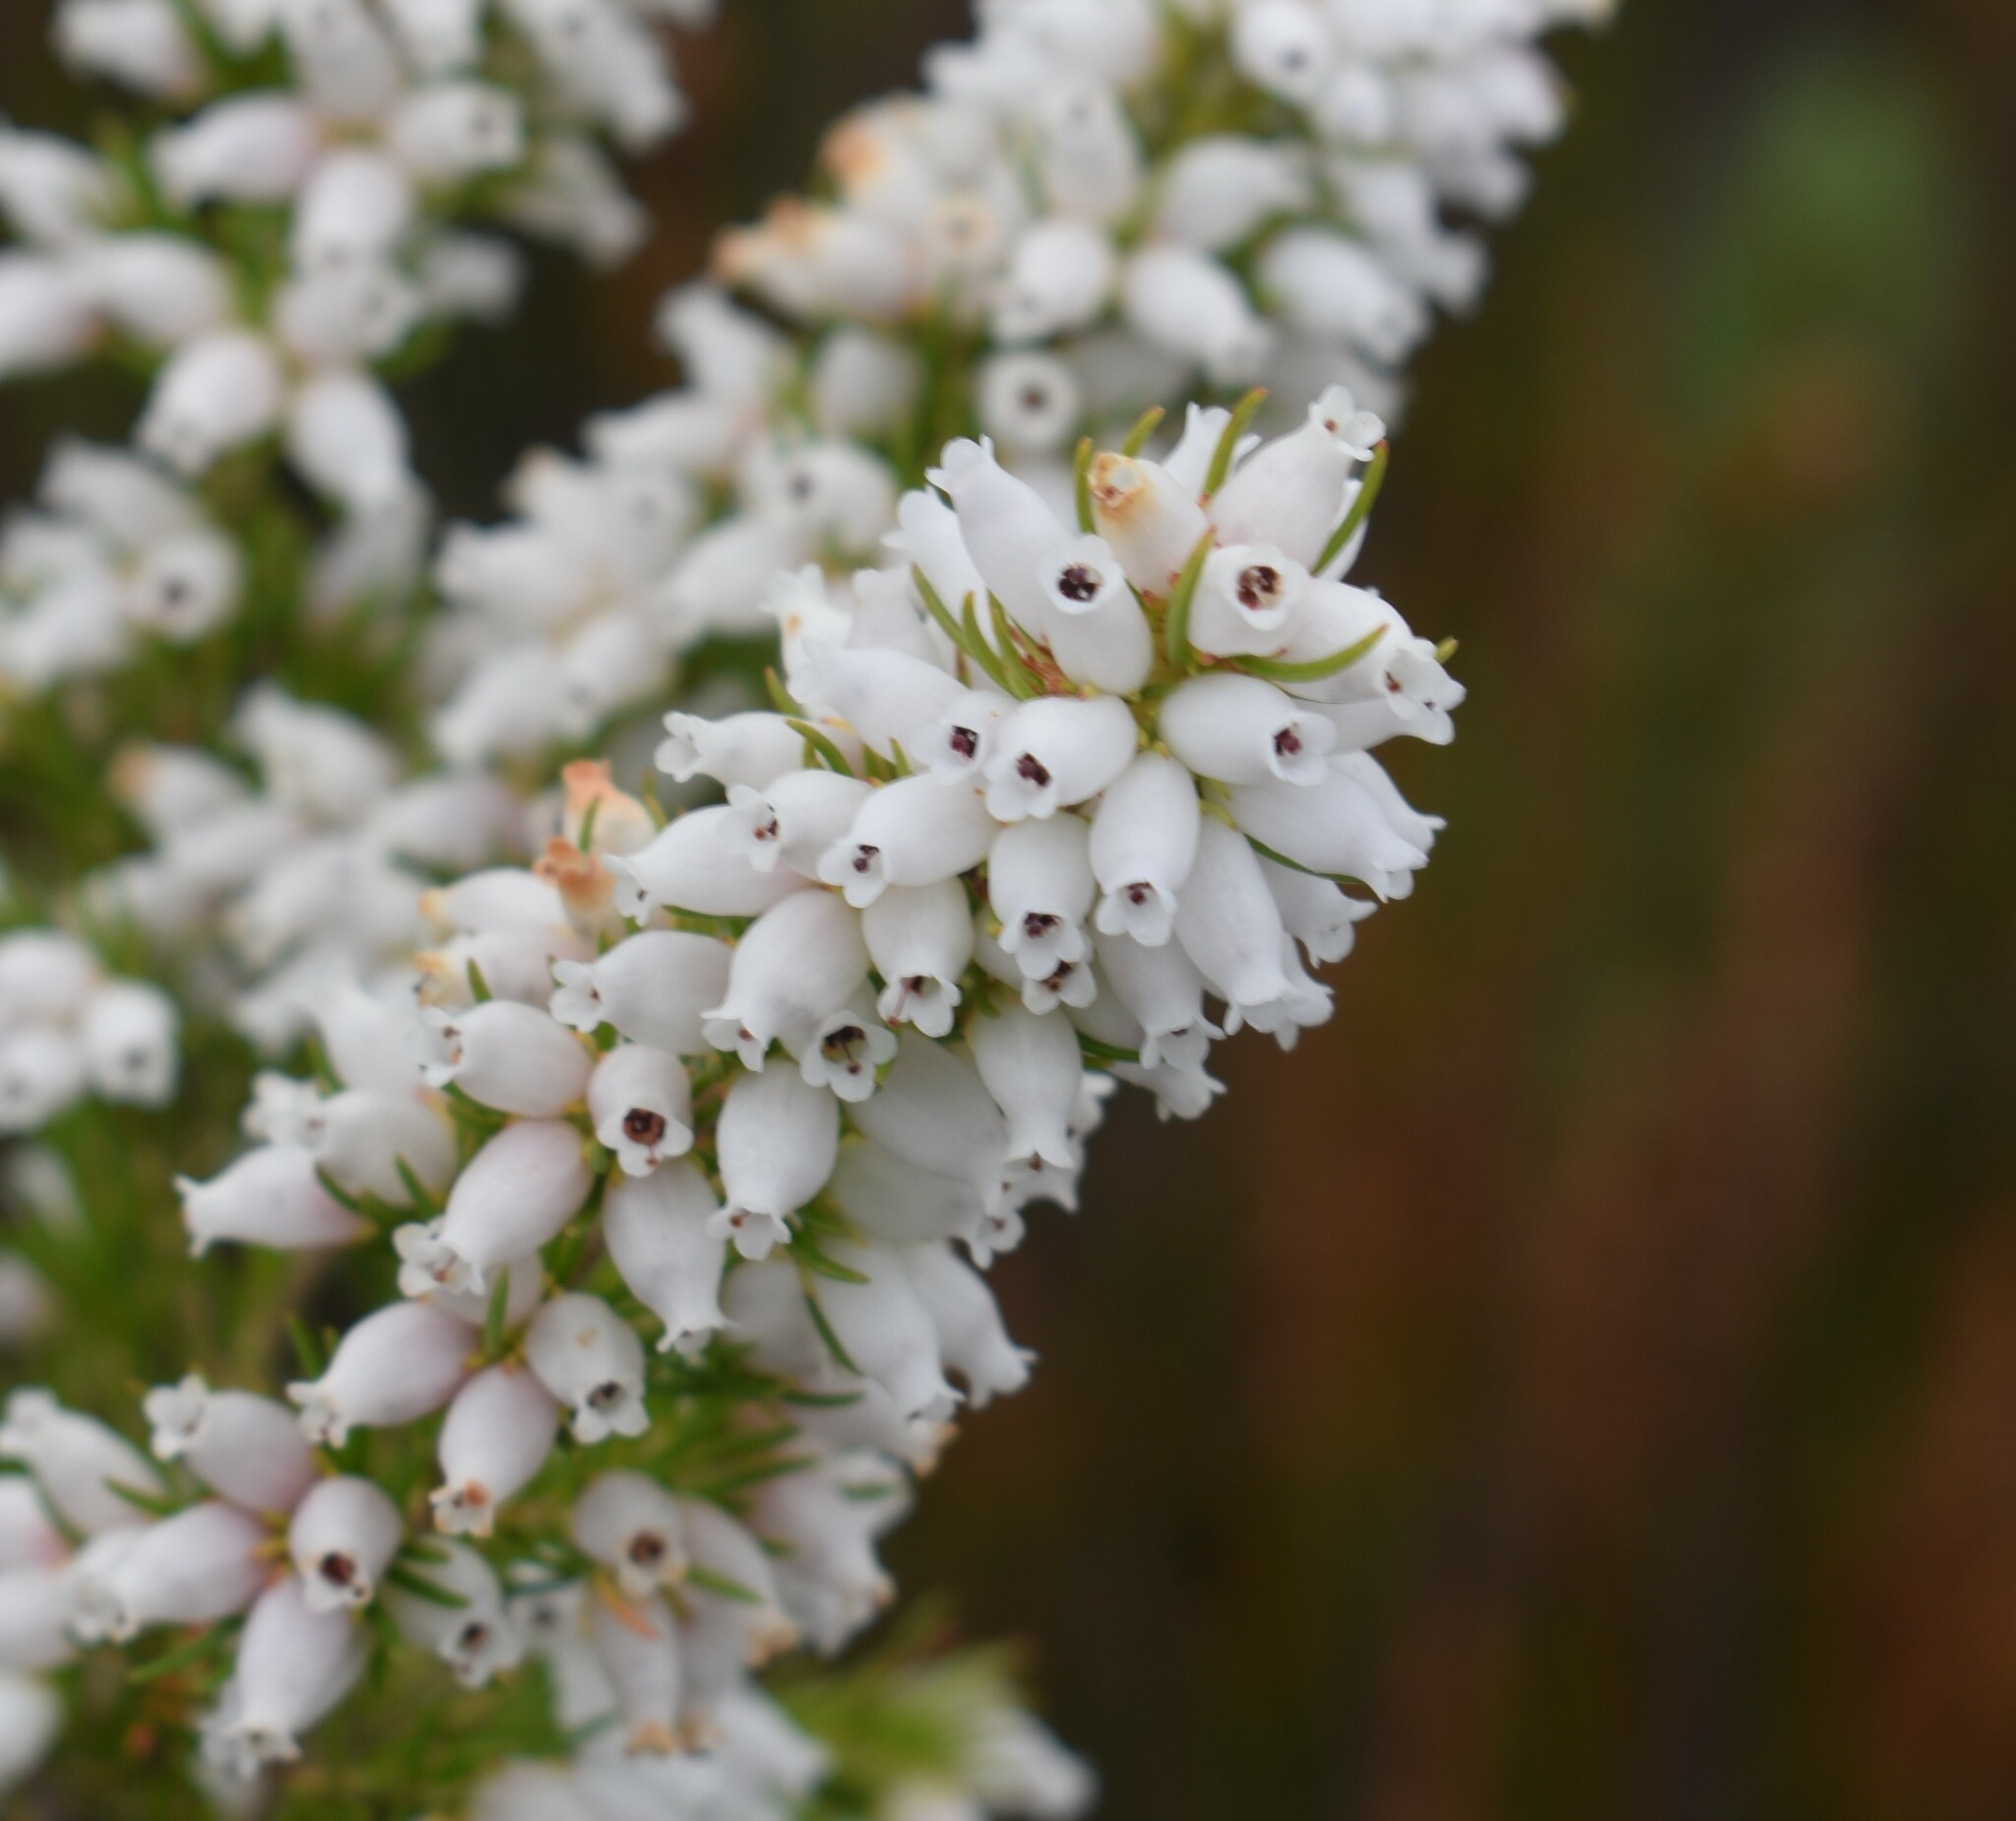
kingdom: Plantae
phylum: Tracheophyta
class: Magnoliopsida
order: Ericales
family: Ericaceae
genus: Erica
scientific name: Erica sitiens
